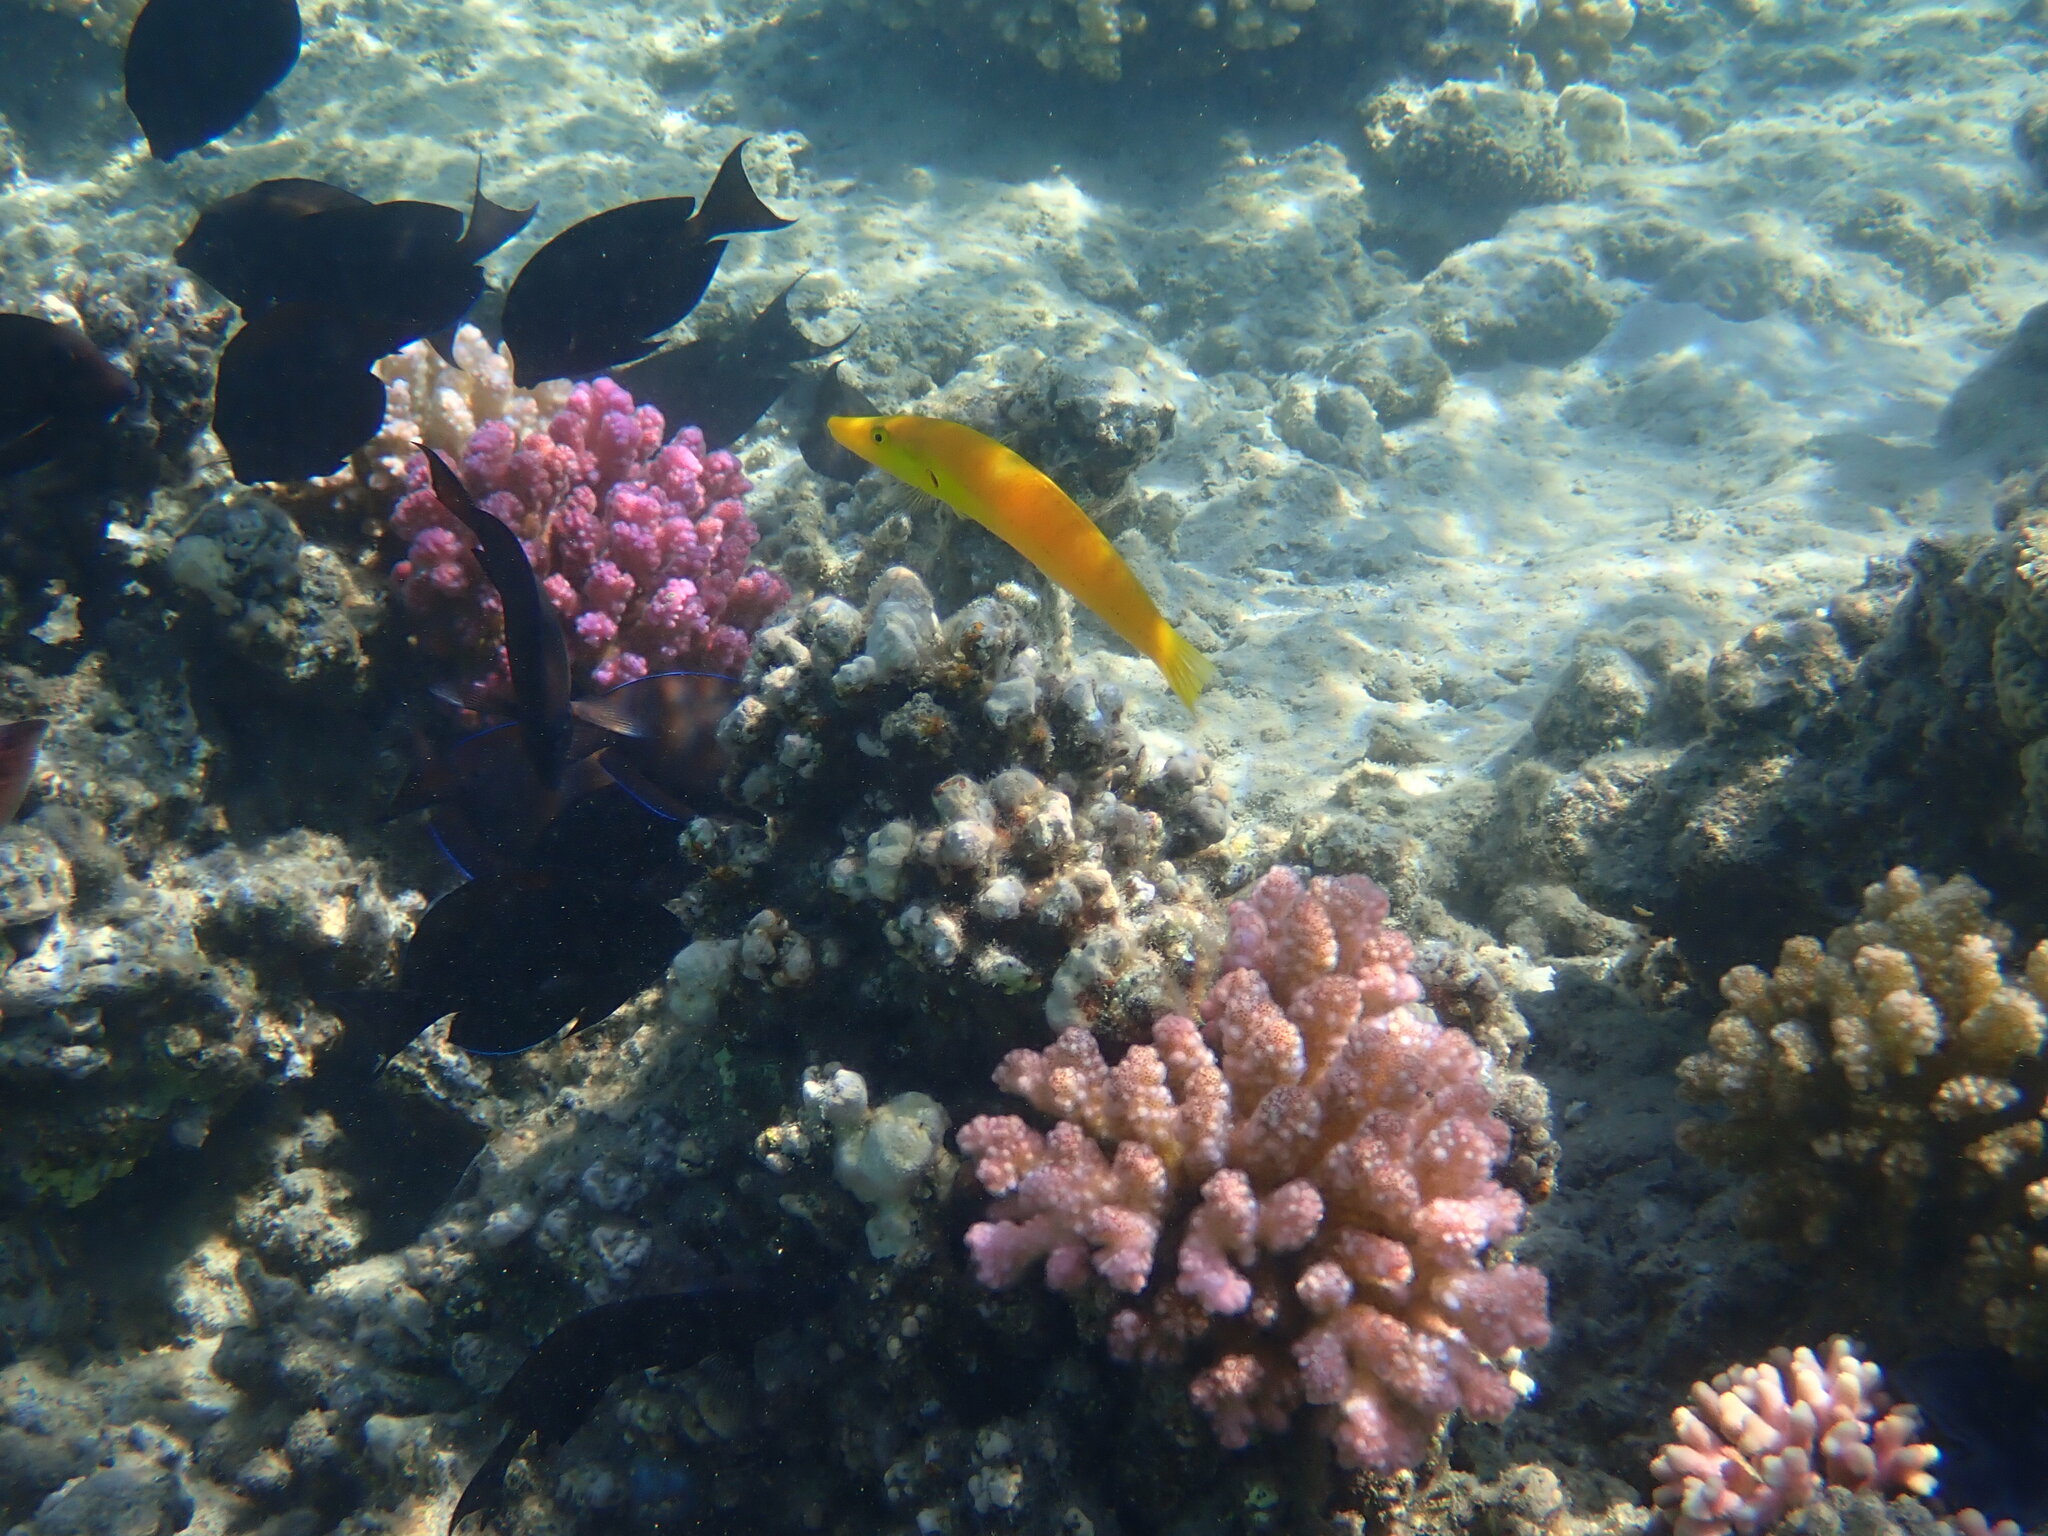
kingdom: Animalia
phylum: Chordata
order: Perciformes
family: Labridae
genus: Cheilio
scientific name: Cheilio inermis
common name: Cigar wrasse
